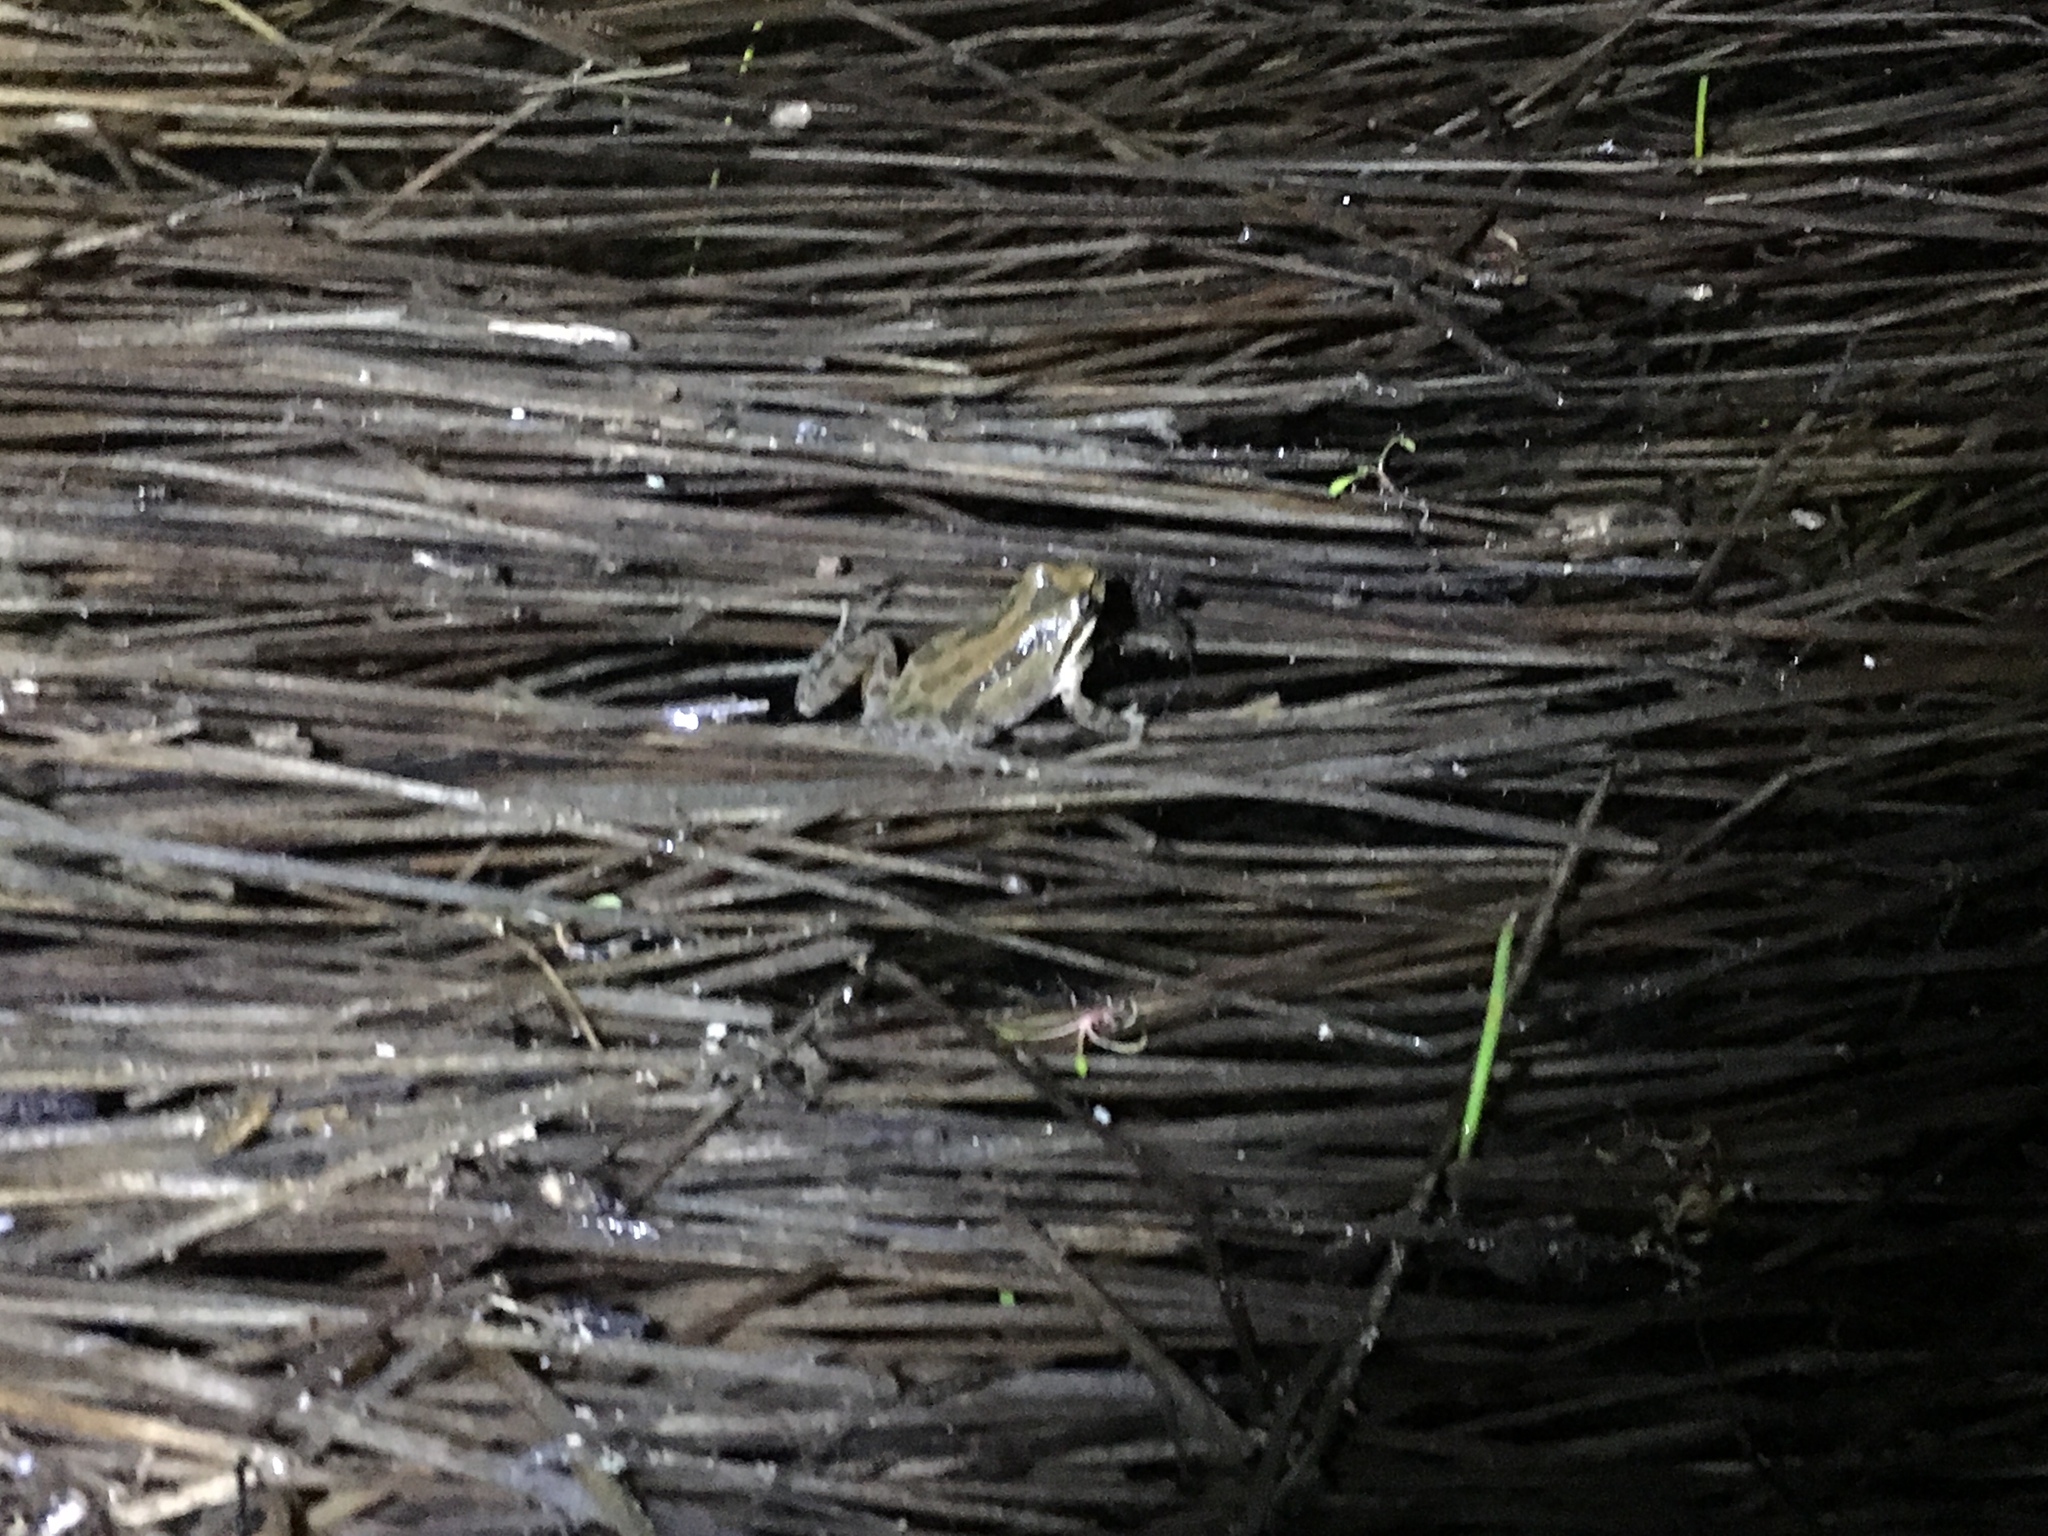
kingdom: Animalia
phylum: Chordata
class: Amphibia
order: Anura
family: Hylidae
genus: Pseudacris
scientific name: Pseudacris regilla
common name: Pacific chorus frog
